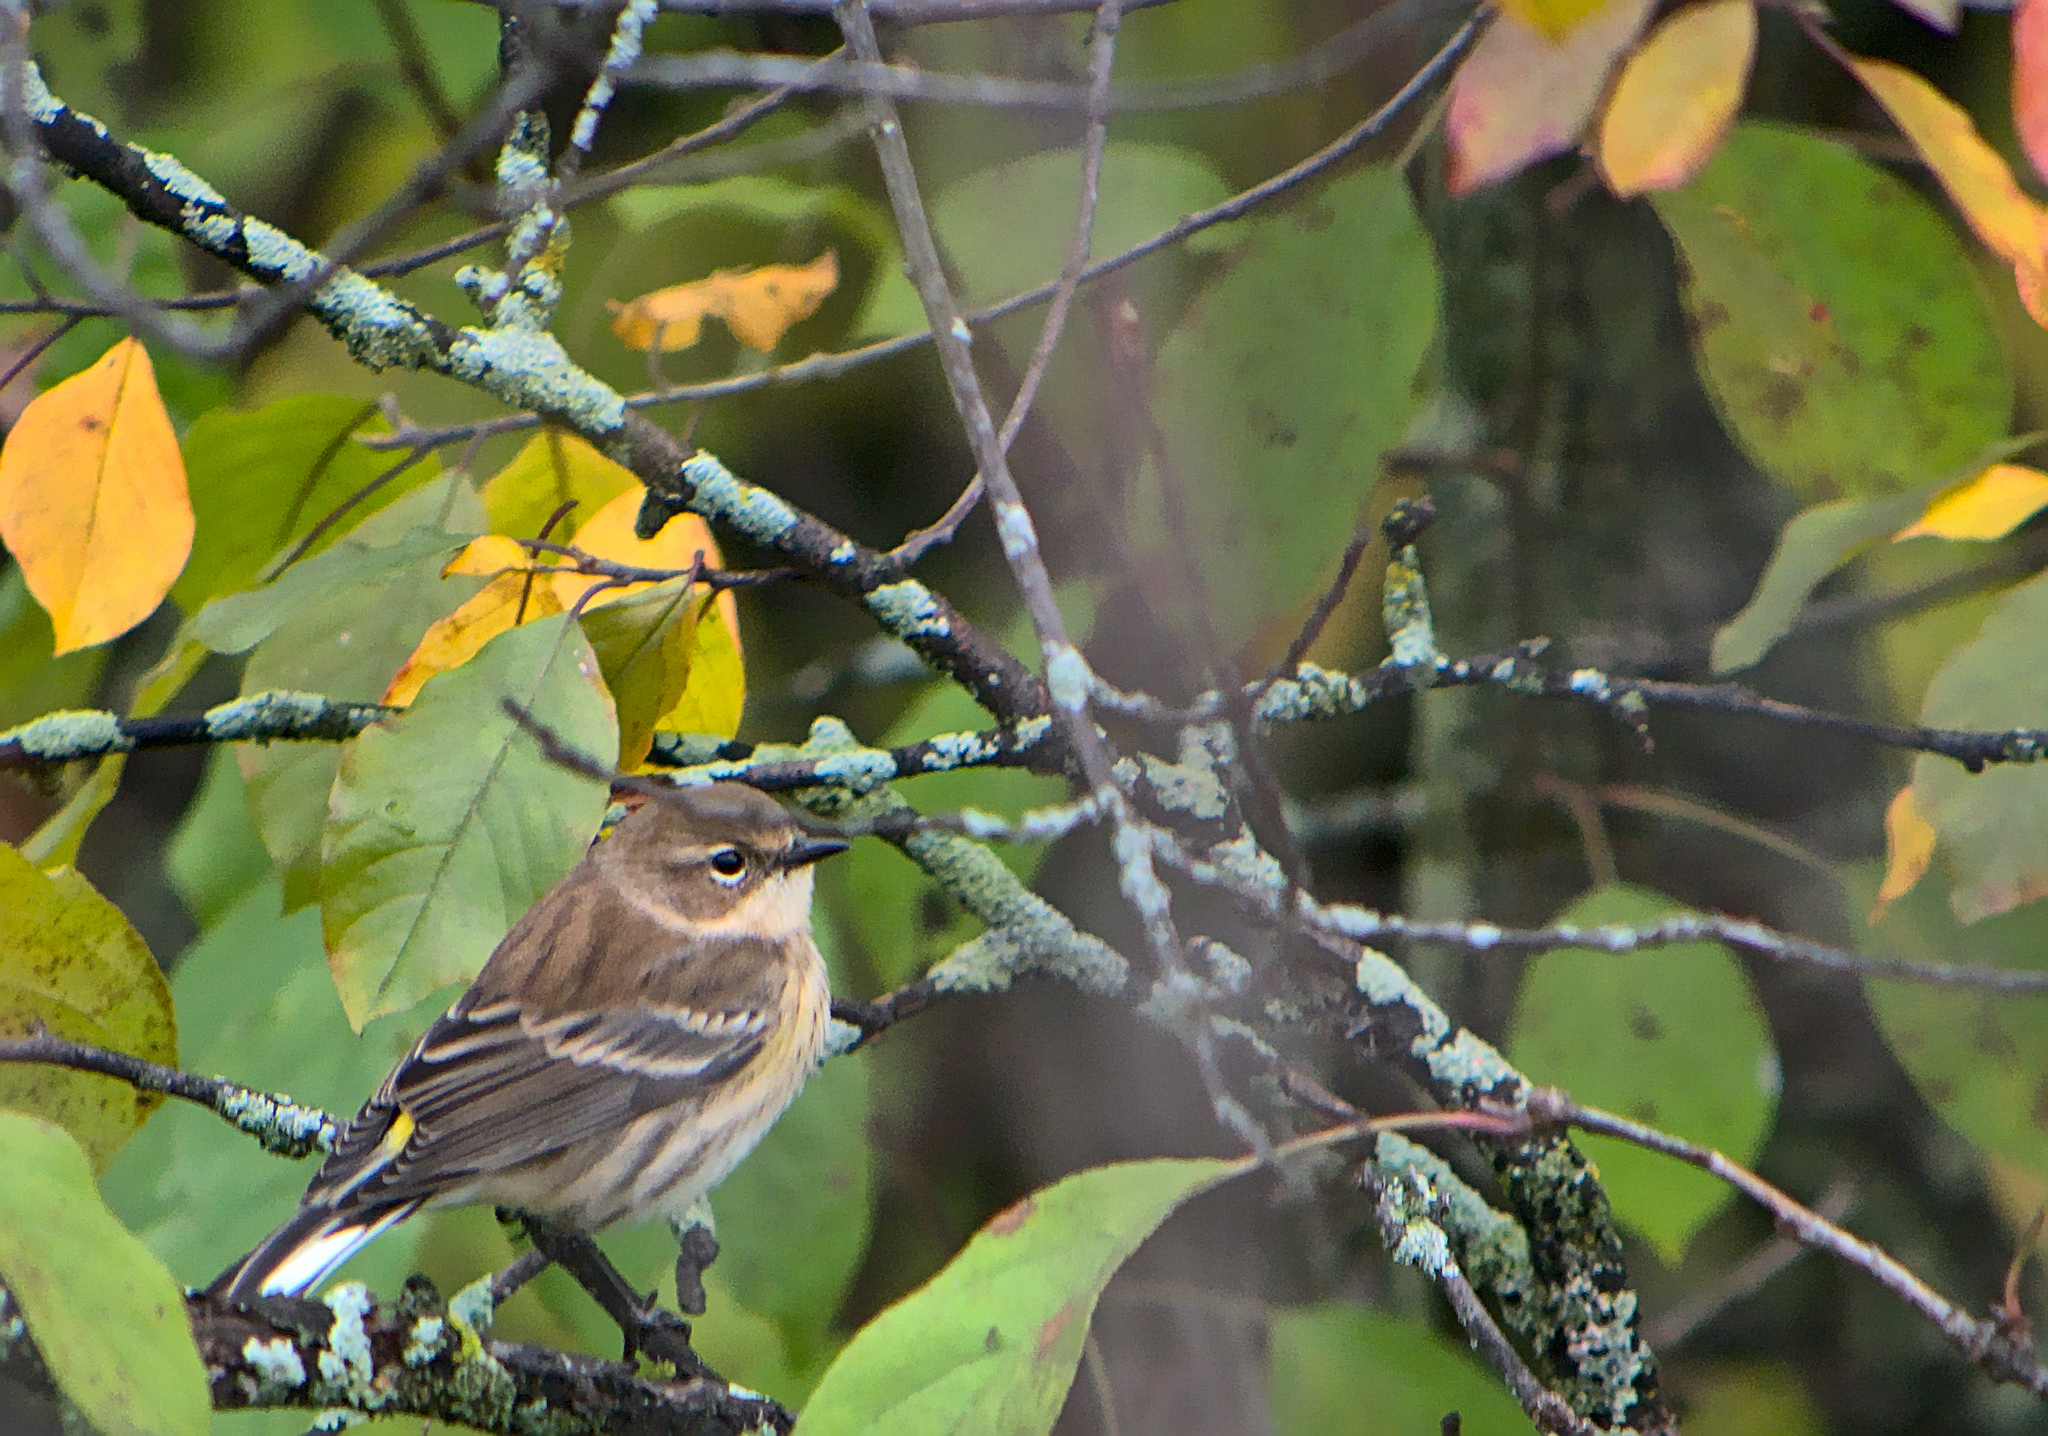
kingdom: Animalia
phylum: Chordata
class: Aves
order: Passeriformes
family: Parulidae
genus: Setophaga
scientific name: Setophaga coronata
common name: Myrtle warbler
